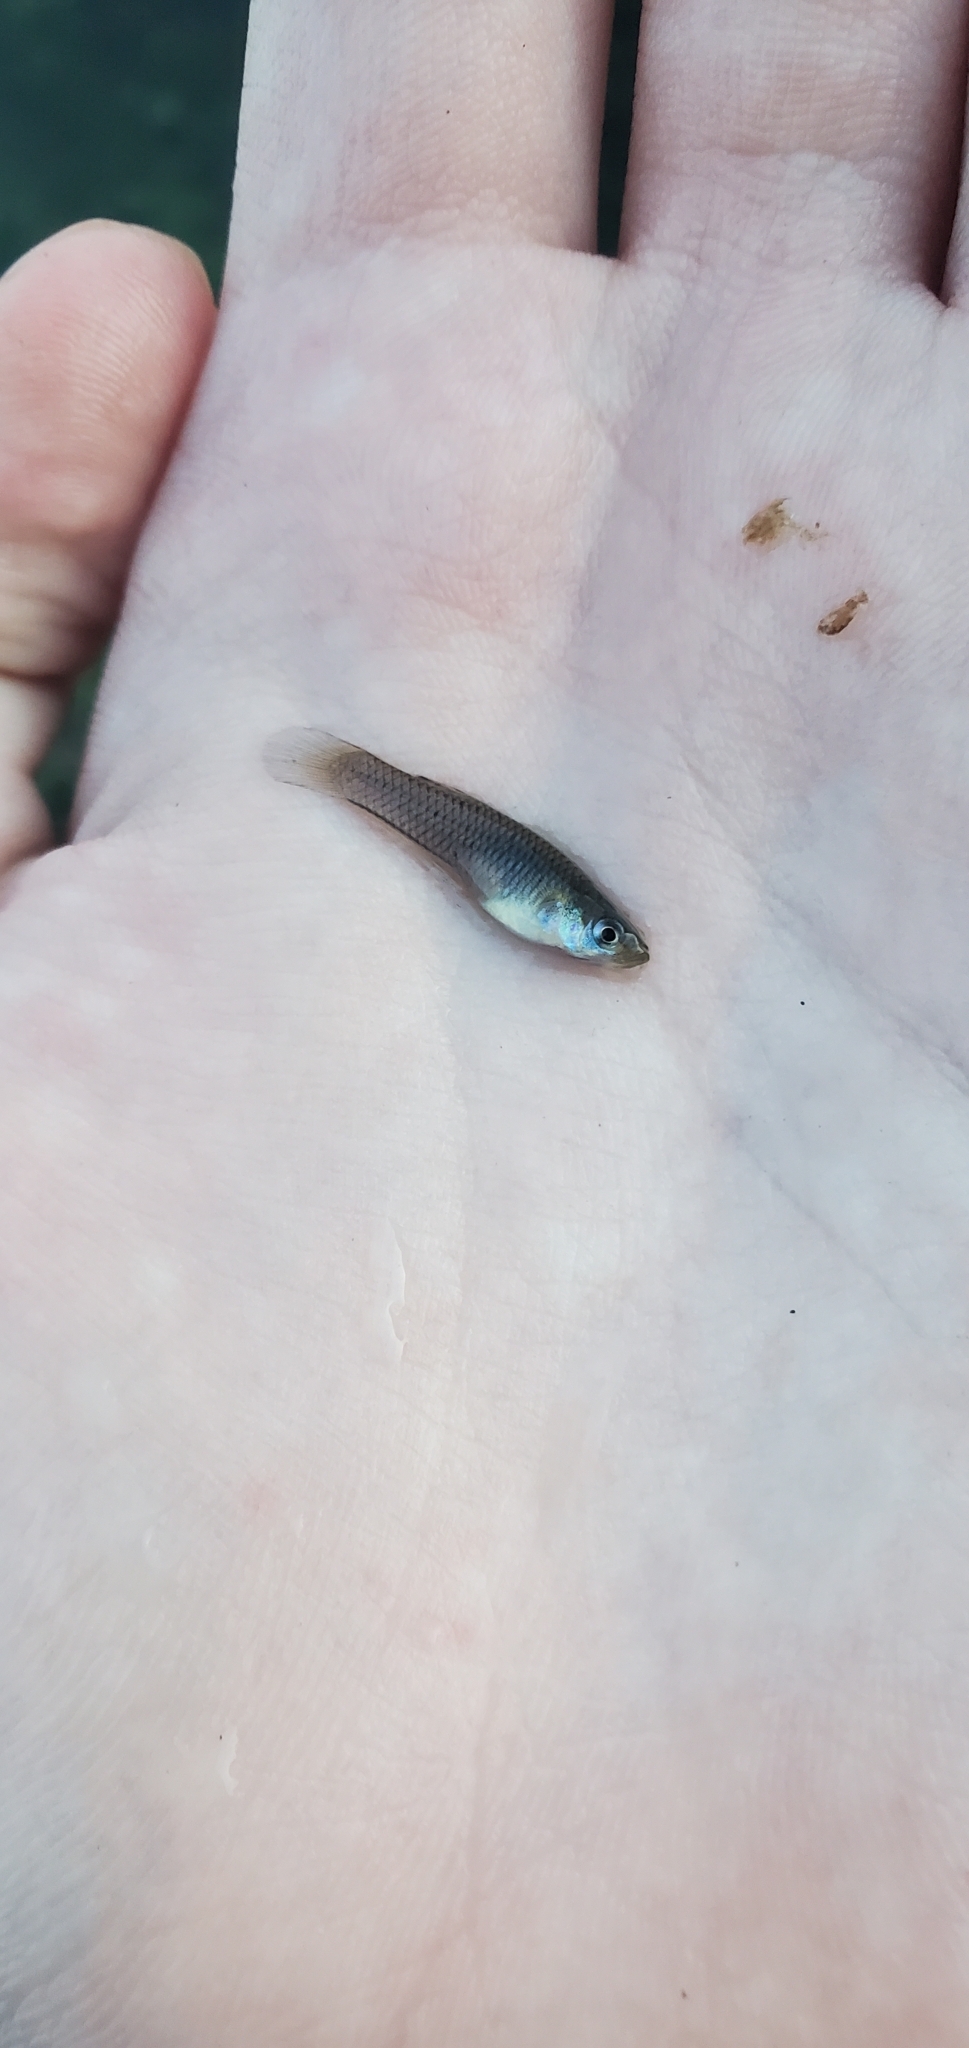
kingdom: Animalia
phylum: Chordata
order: Cyprinodontiformes
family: Poeciliidae
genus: Gambusia
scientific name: Gambusia affinis
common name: Mosquitofish
